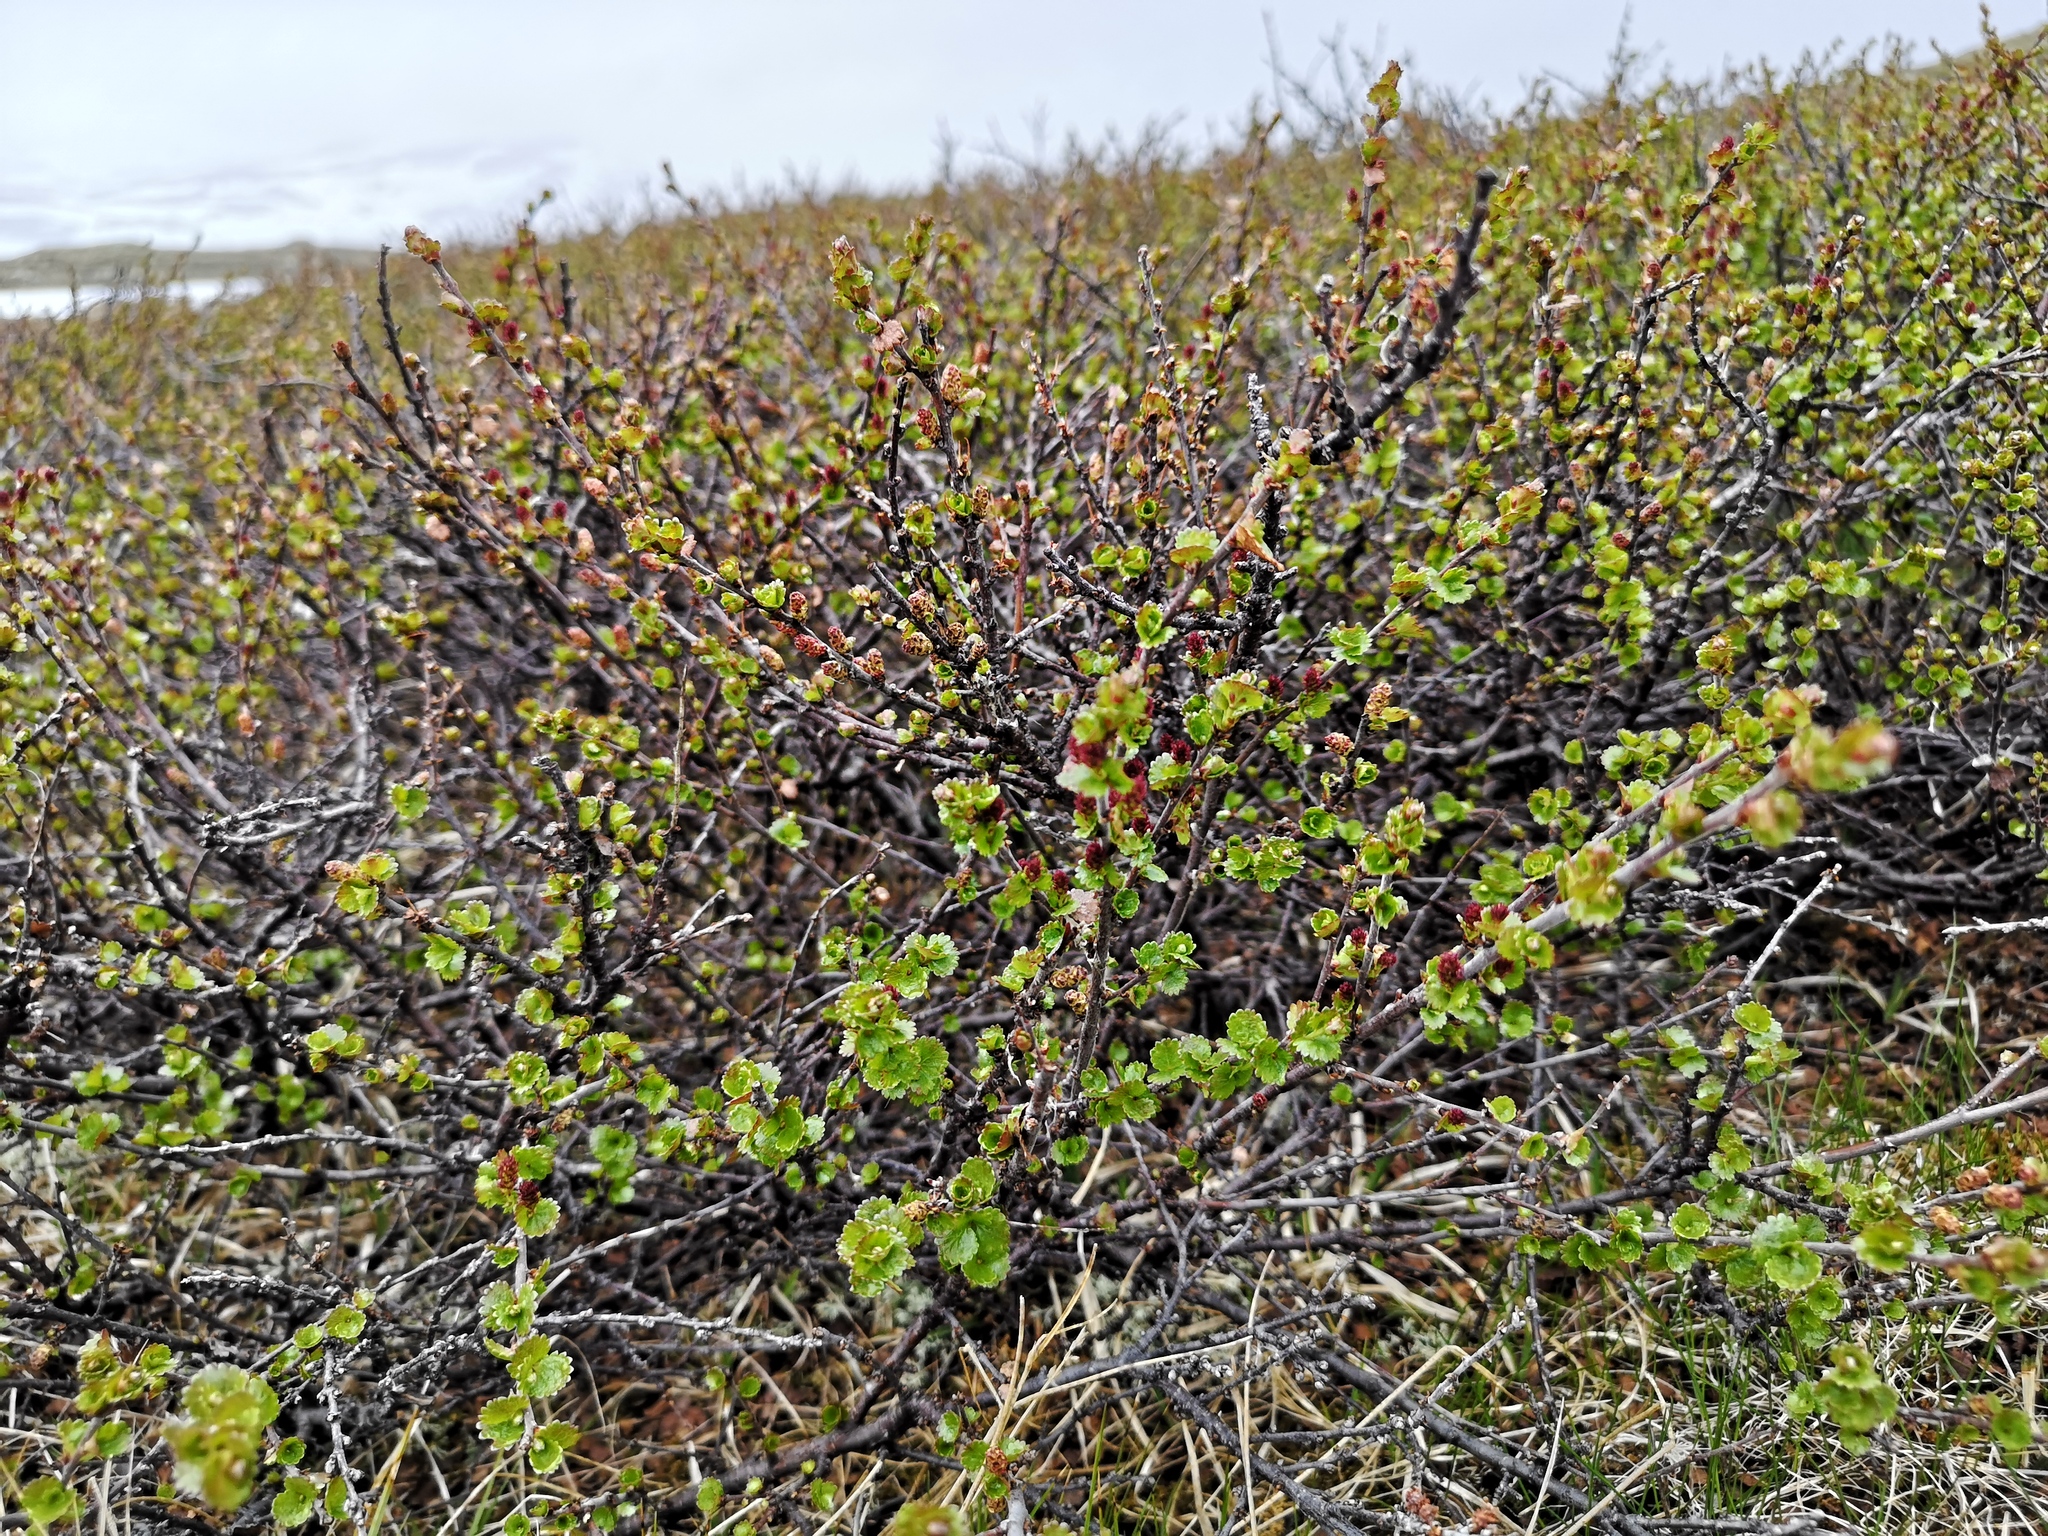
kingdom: Plantae
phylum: Tracheophyta
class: Magnoliopsida
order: Fagales
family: Betulaceae
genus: Betula
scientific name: Betula nana
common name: Arctic dwarf birch
